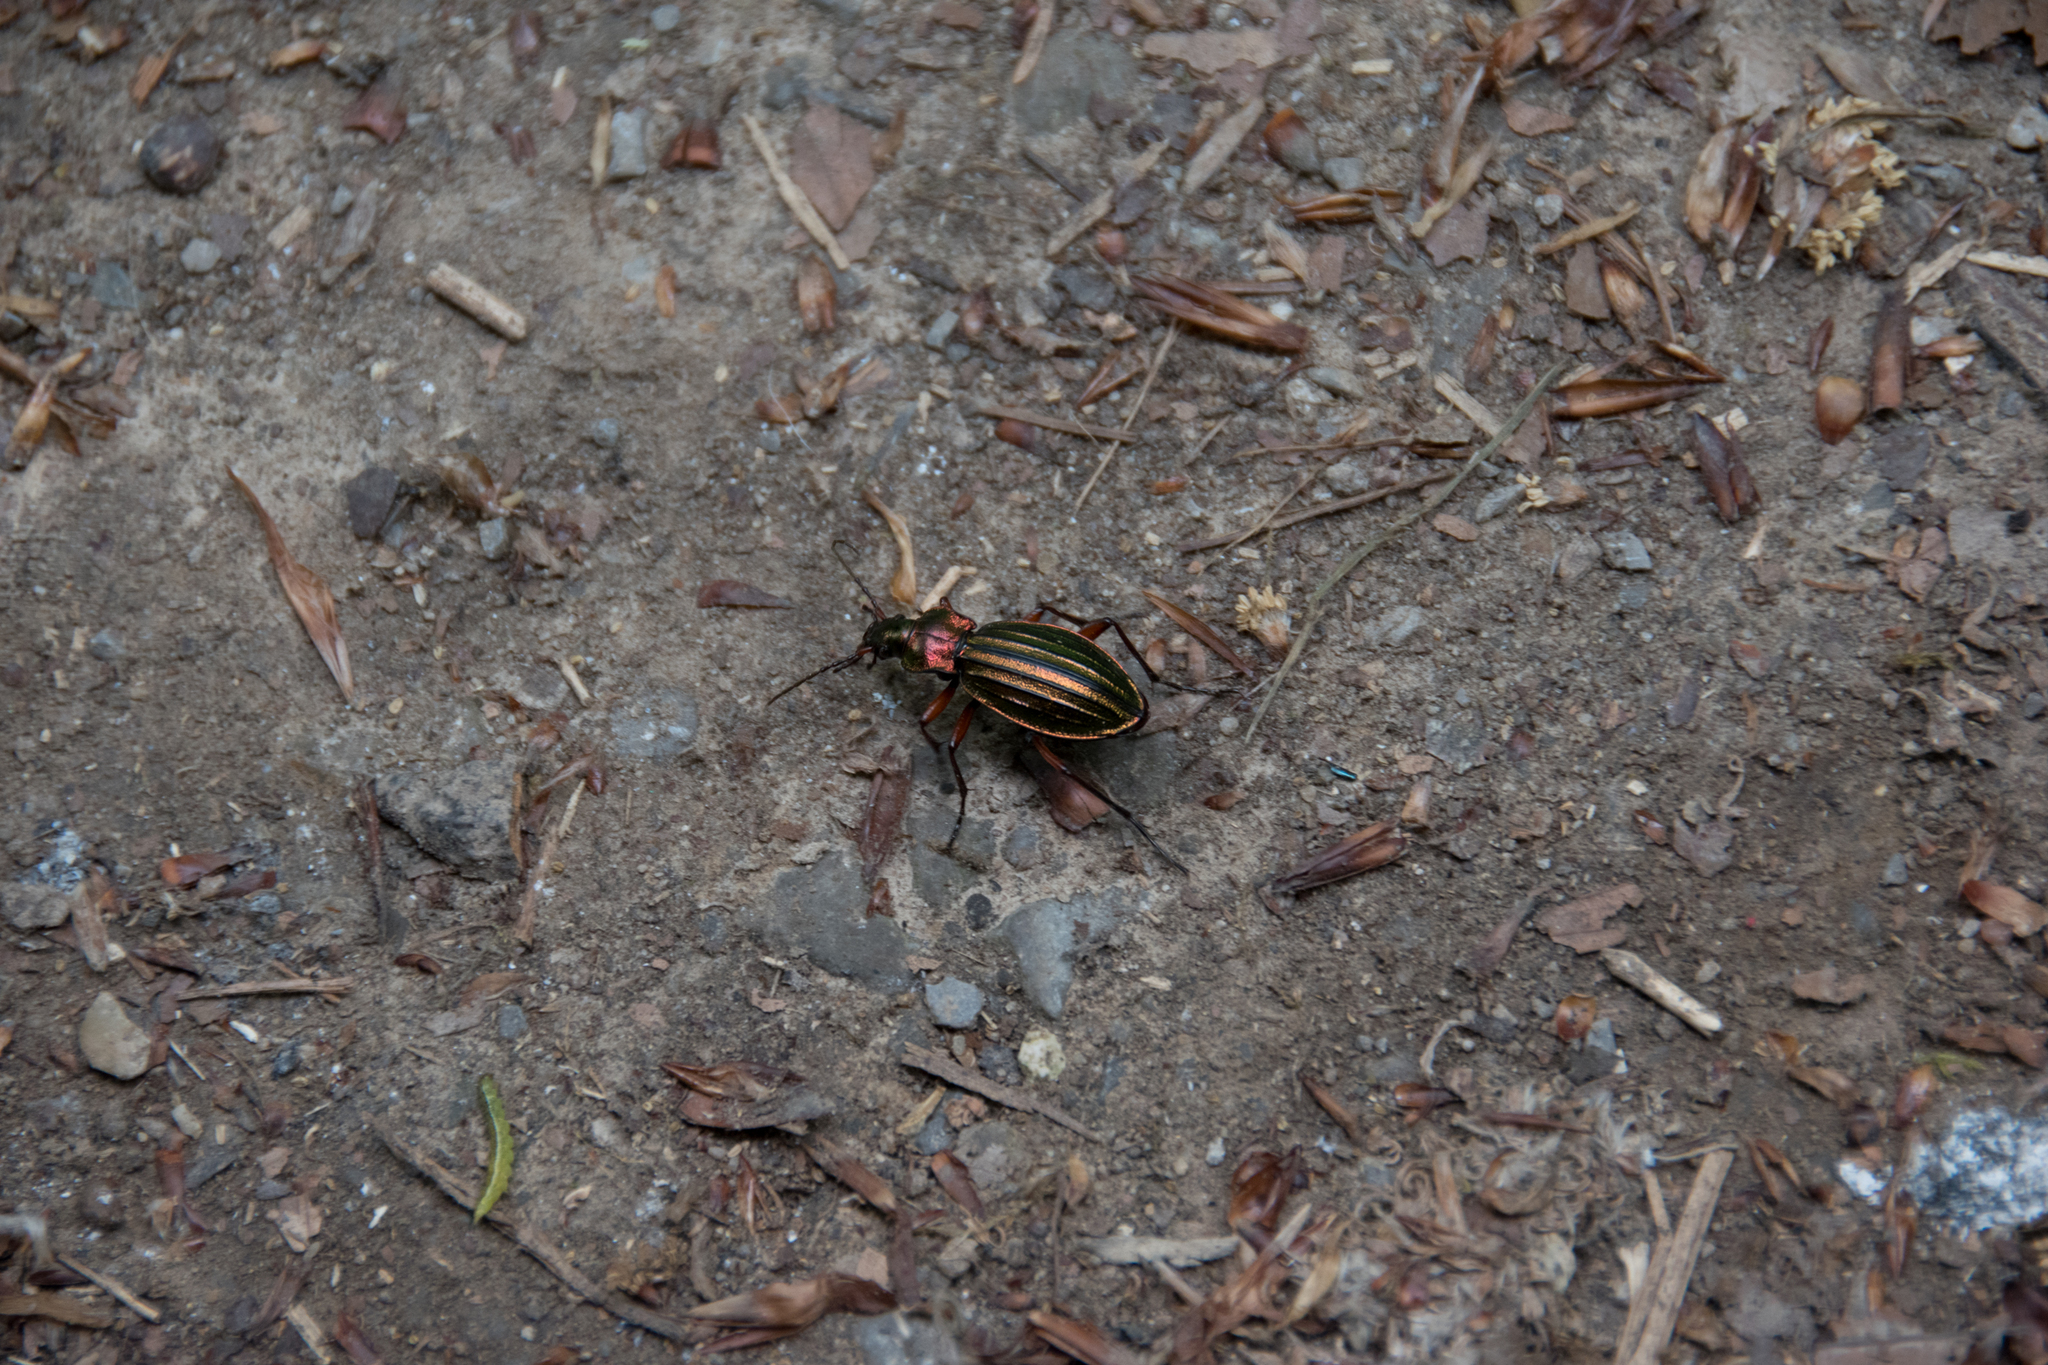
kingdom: Animalia
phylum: Arthropoda
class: Insecta
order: Coleoptera
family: Carabidae
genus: Carabus
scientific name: Carabus auronitens
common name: Carabus auronitens
